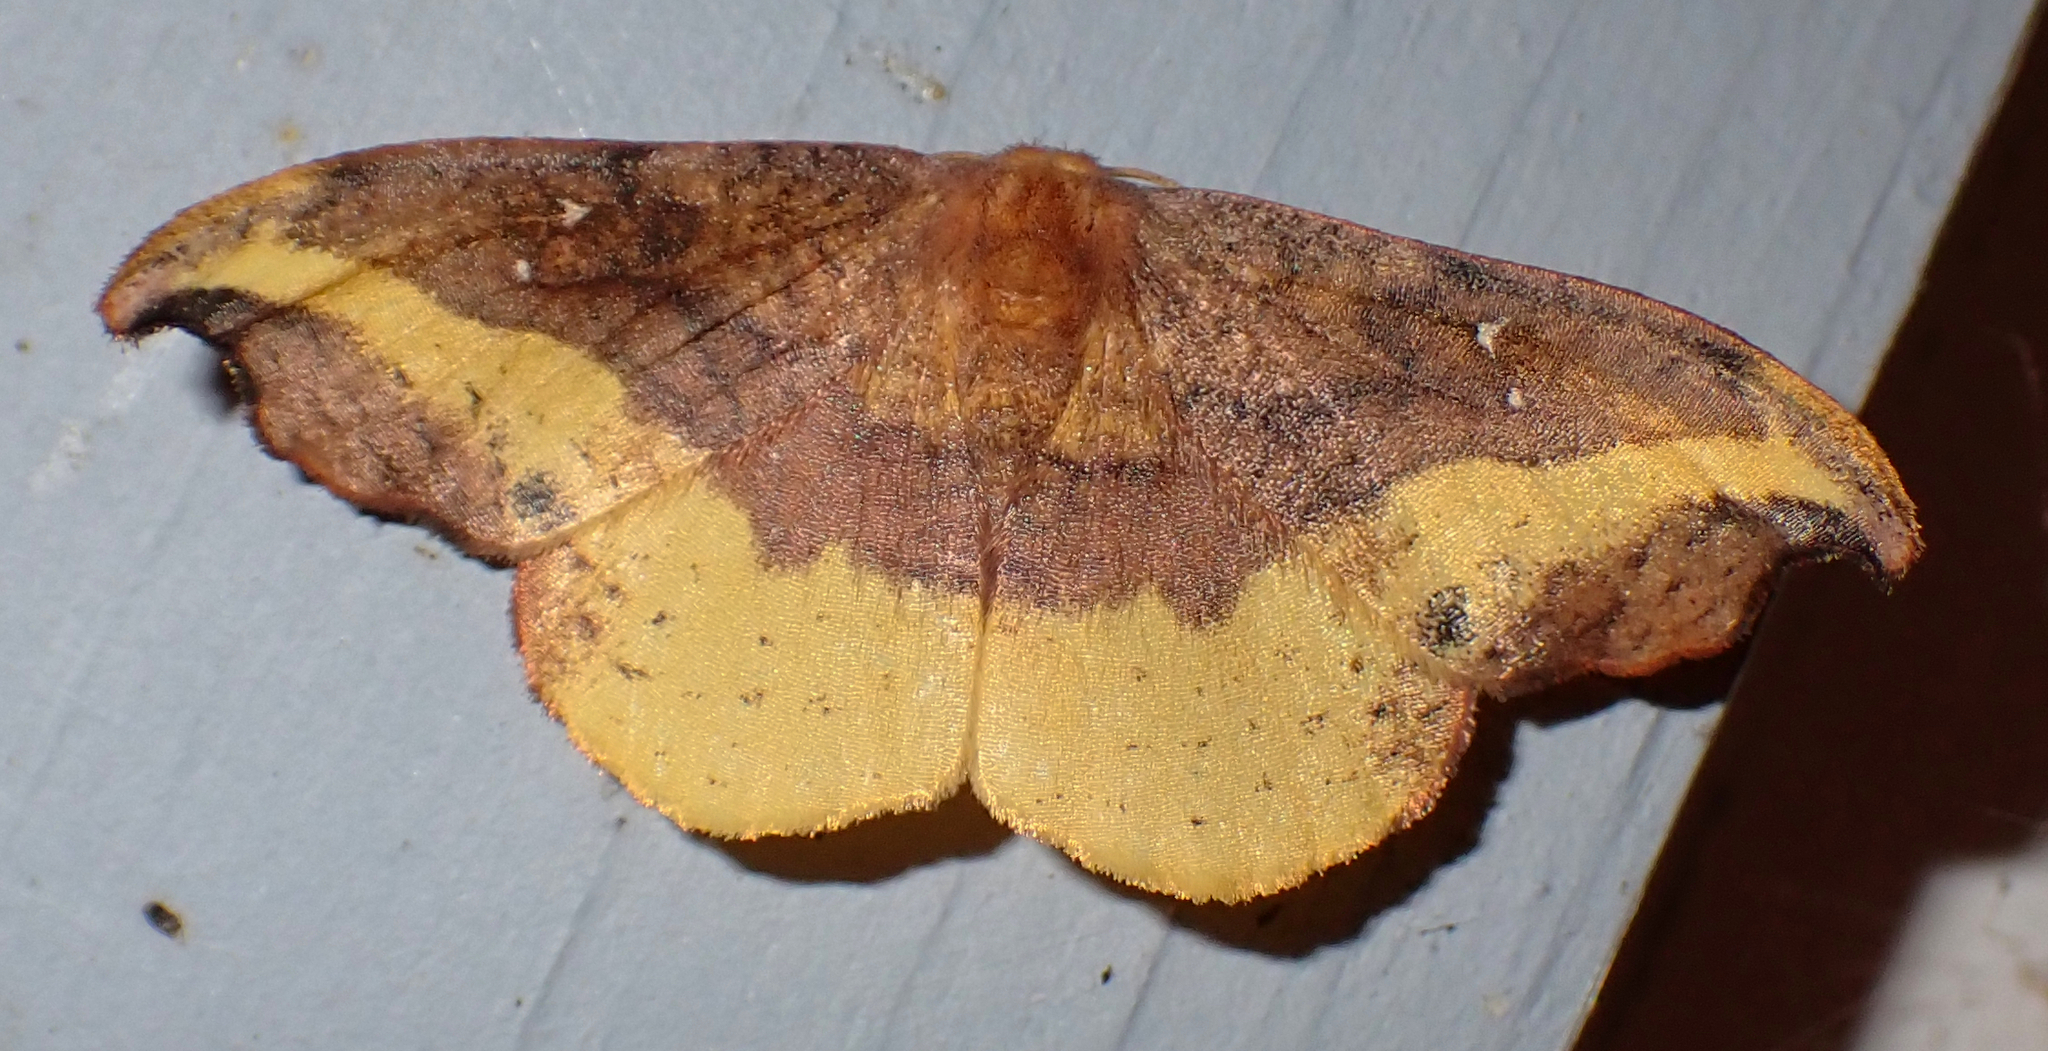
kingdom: Animalia
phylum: Arthropoda
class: Insecta
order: Lepidoptera
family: Drepanidae
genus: Oreta
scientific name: Oreta rosea
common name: Rose hooktip
